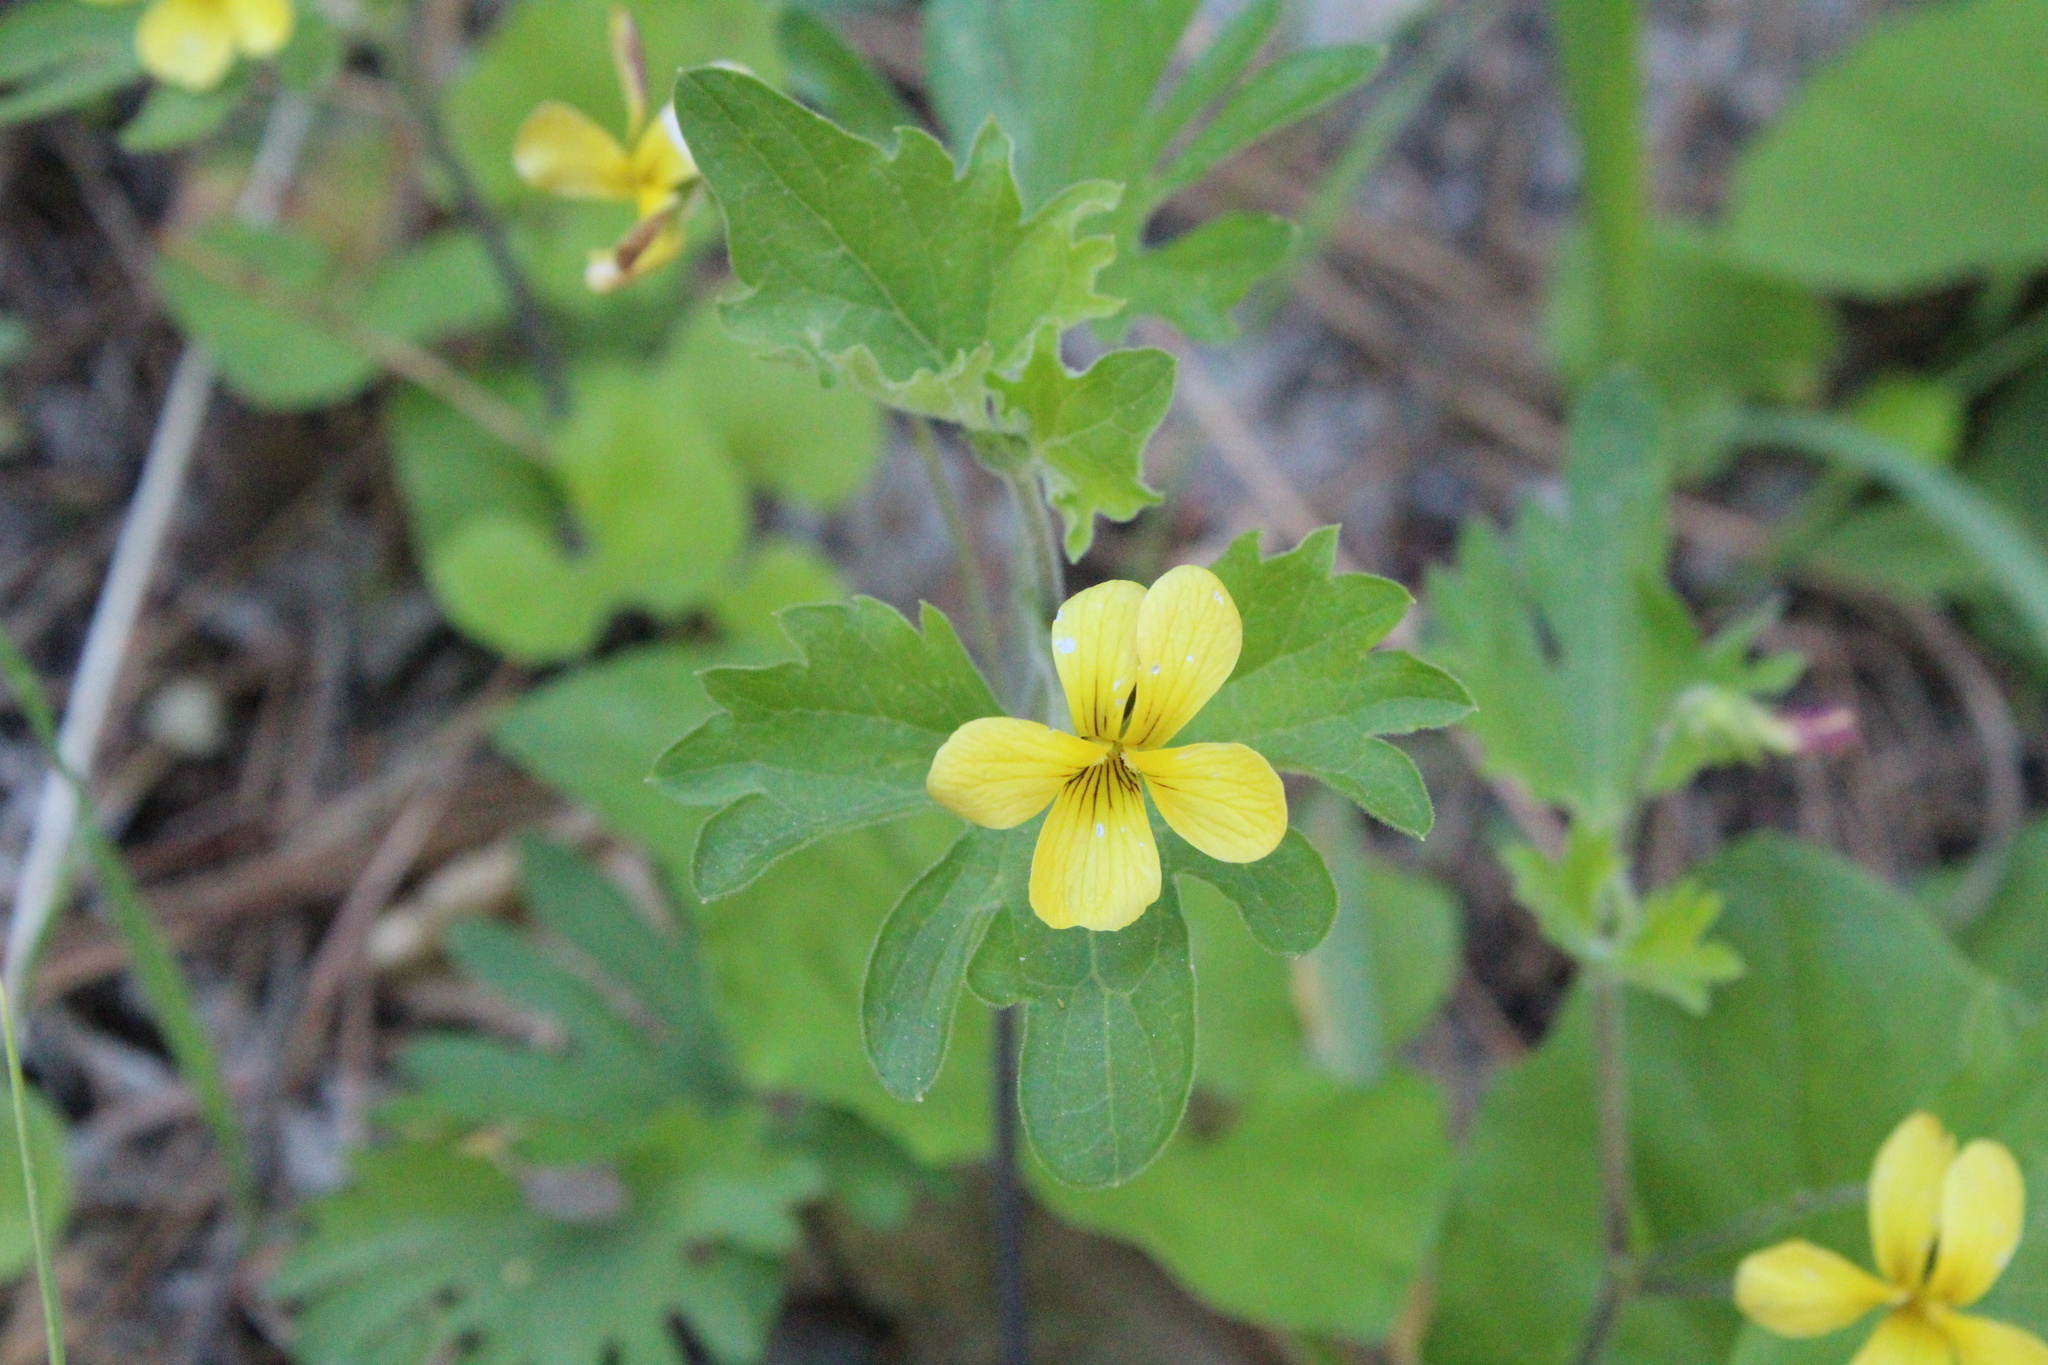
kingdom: Plantae
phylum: Tracheophyta
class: Magnoliopsida
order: Malpighiales
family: Violaceae
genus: Viola
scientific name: Viola lobata
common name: Pine violet
